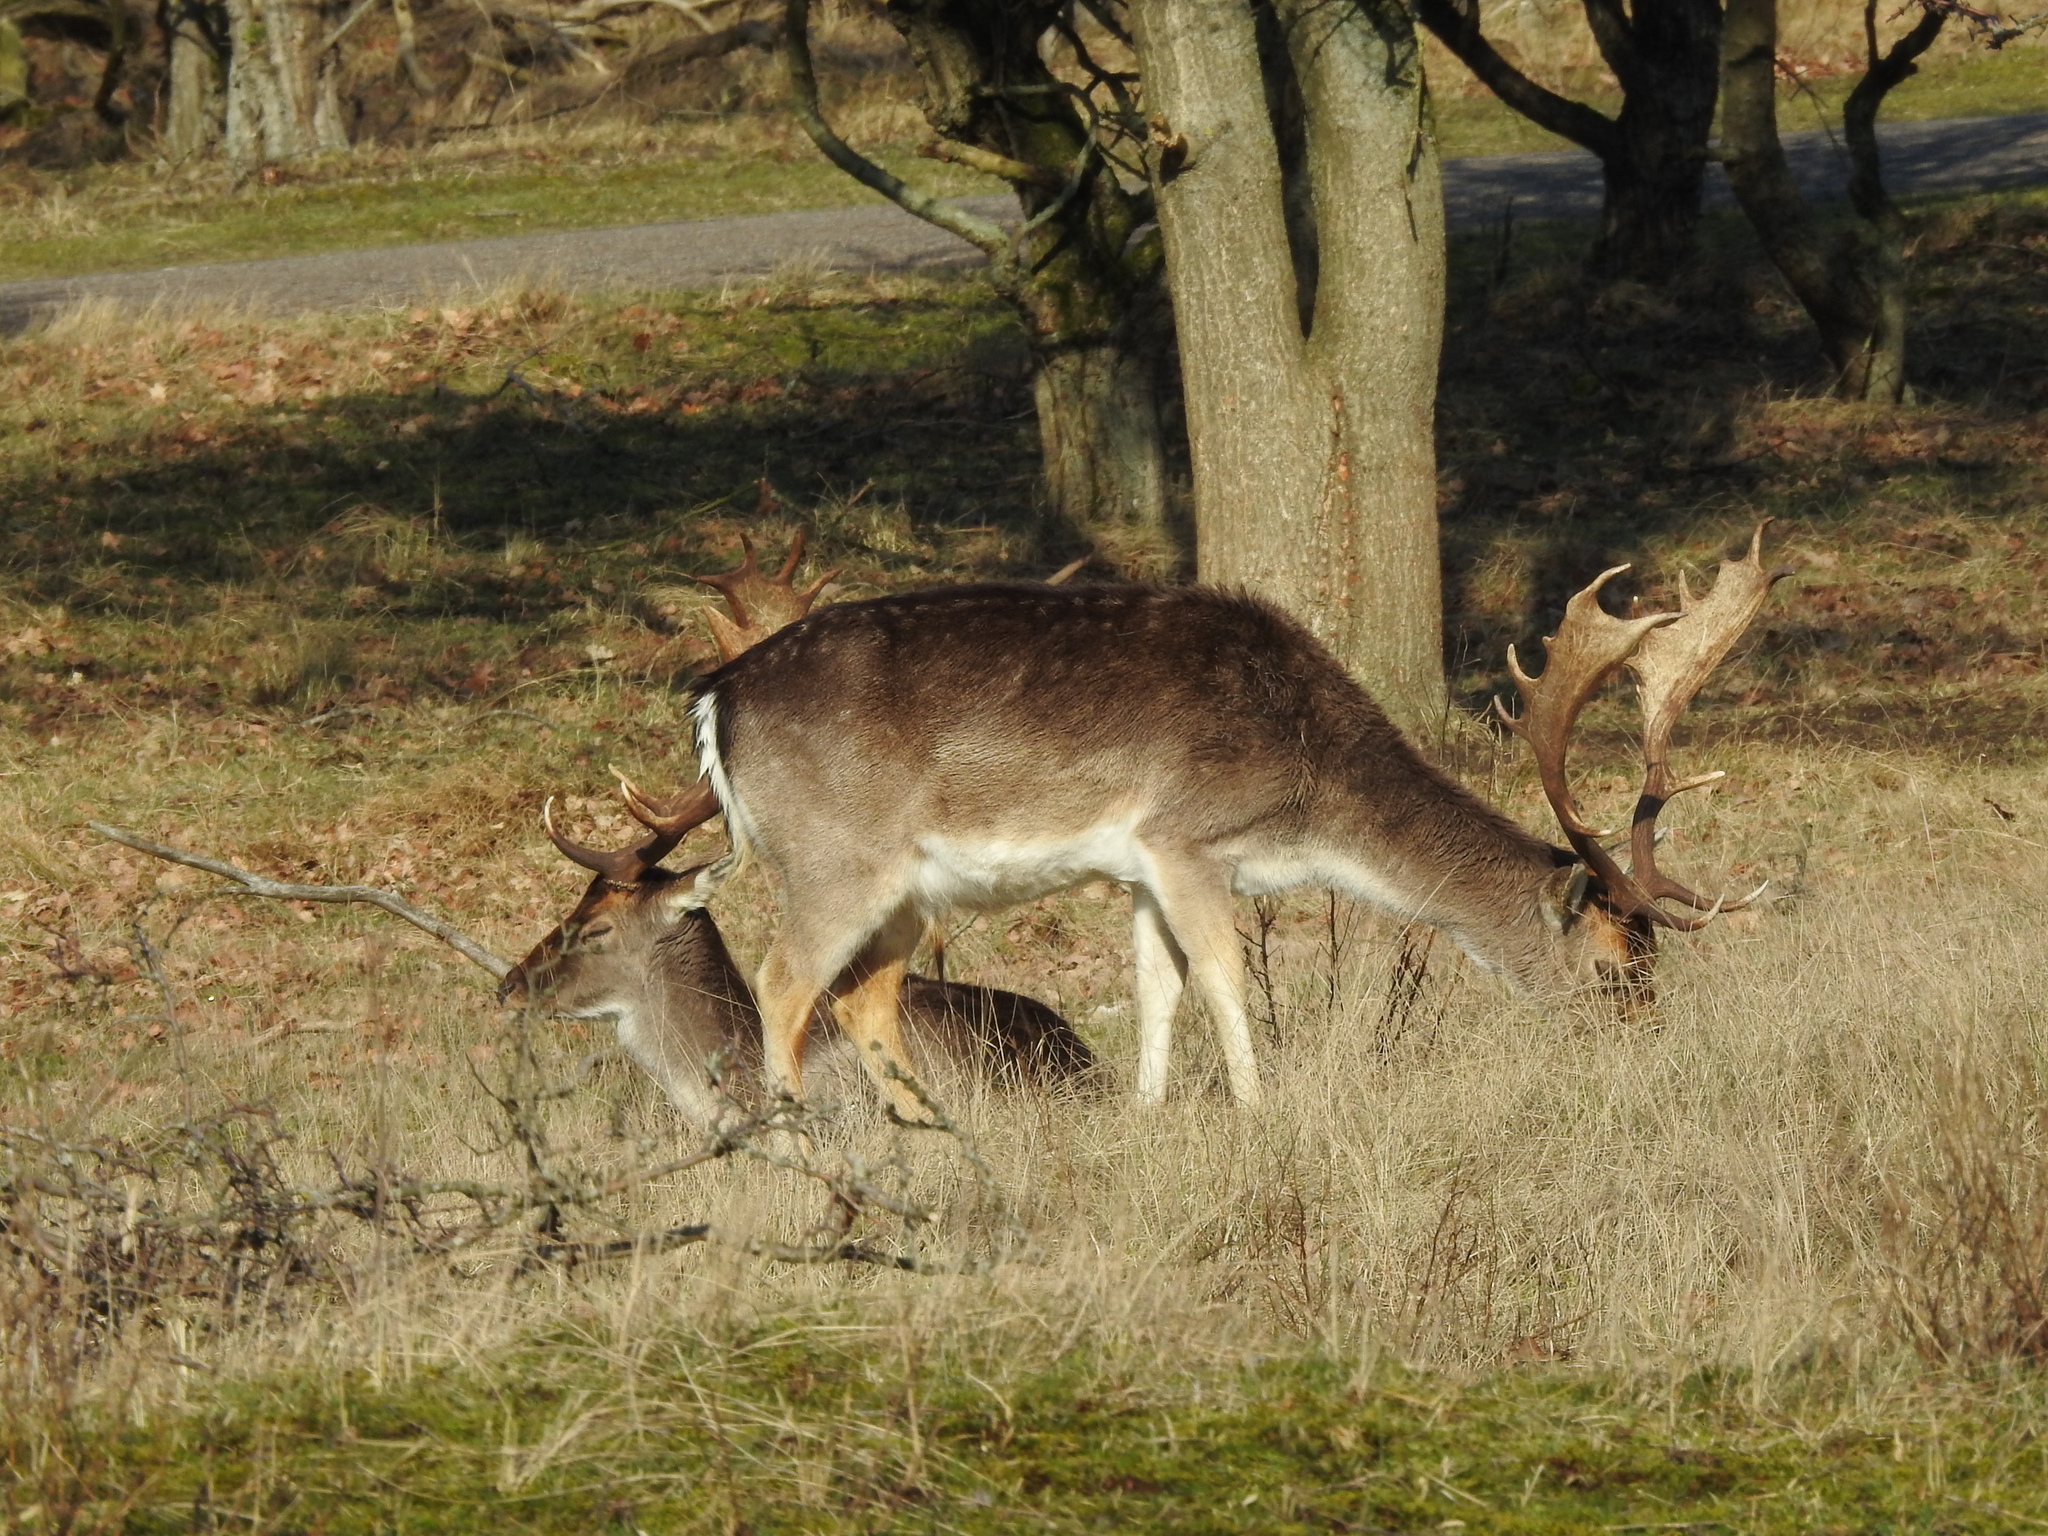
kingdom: Animalia
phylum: Chordata
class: Mammalia
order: Artiodactyla
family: Cervidae
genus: Dama
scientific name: Dama dama
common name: Fallow deer
